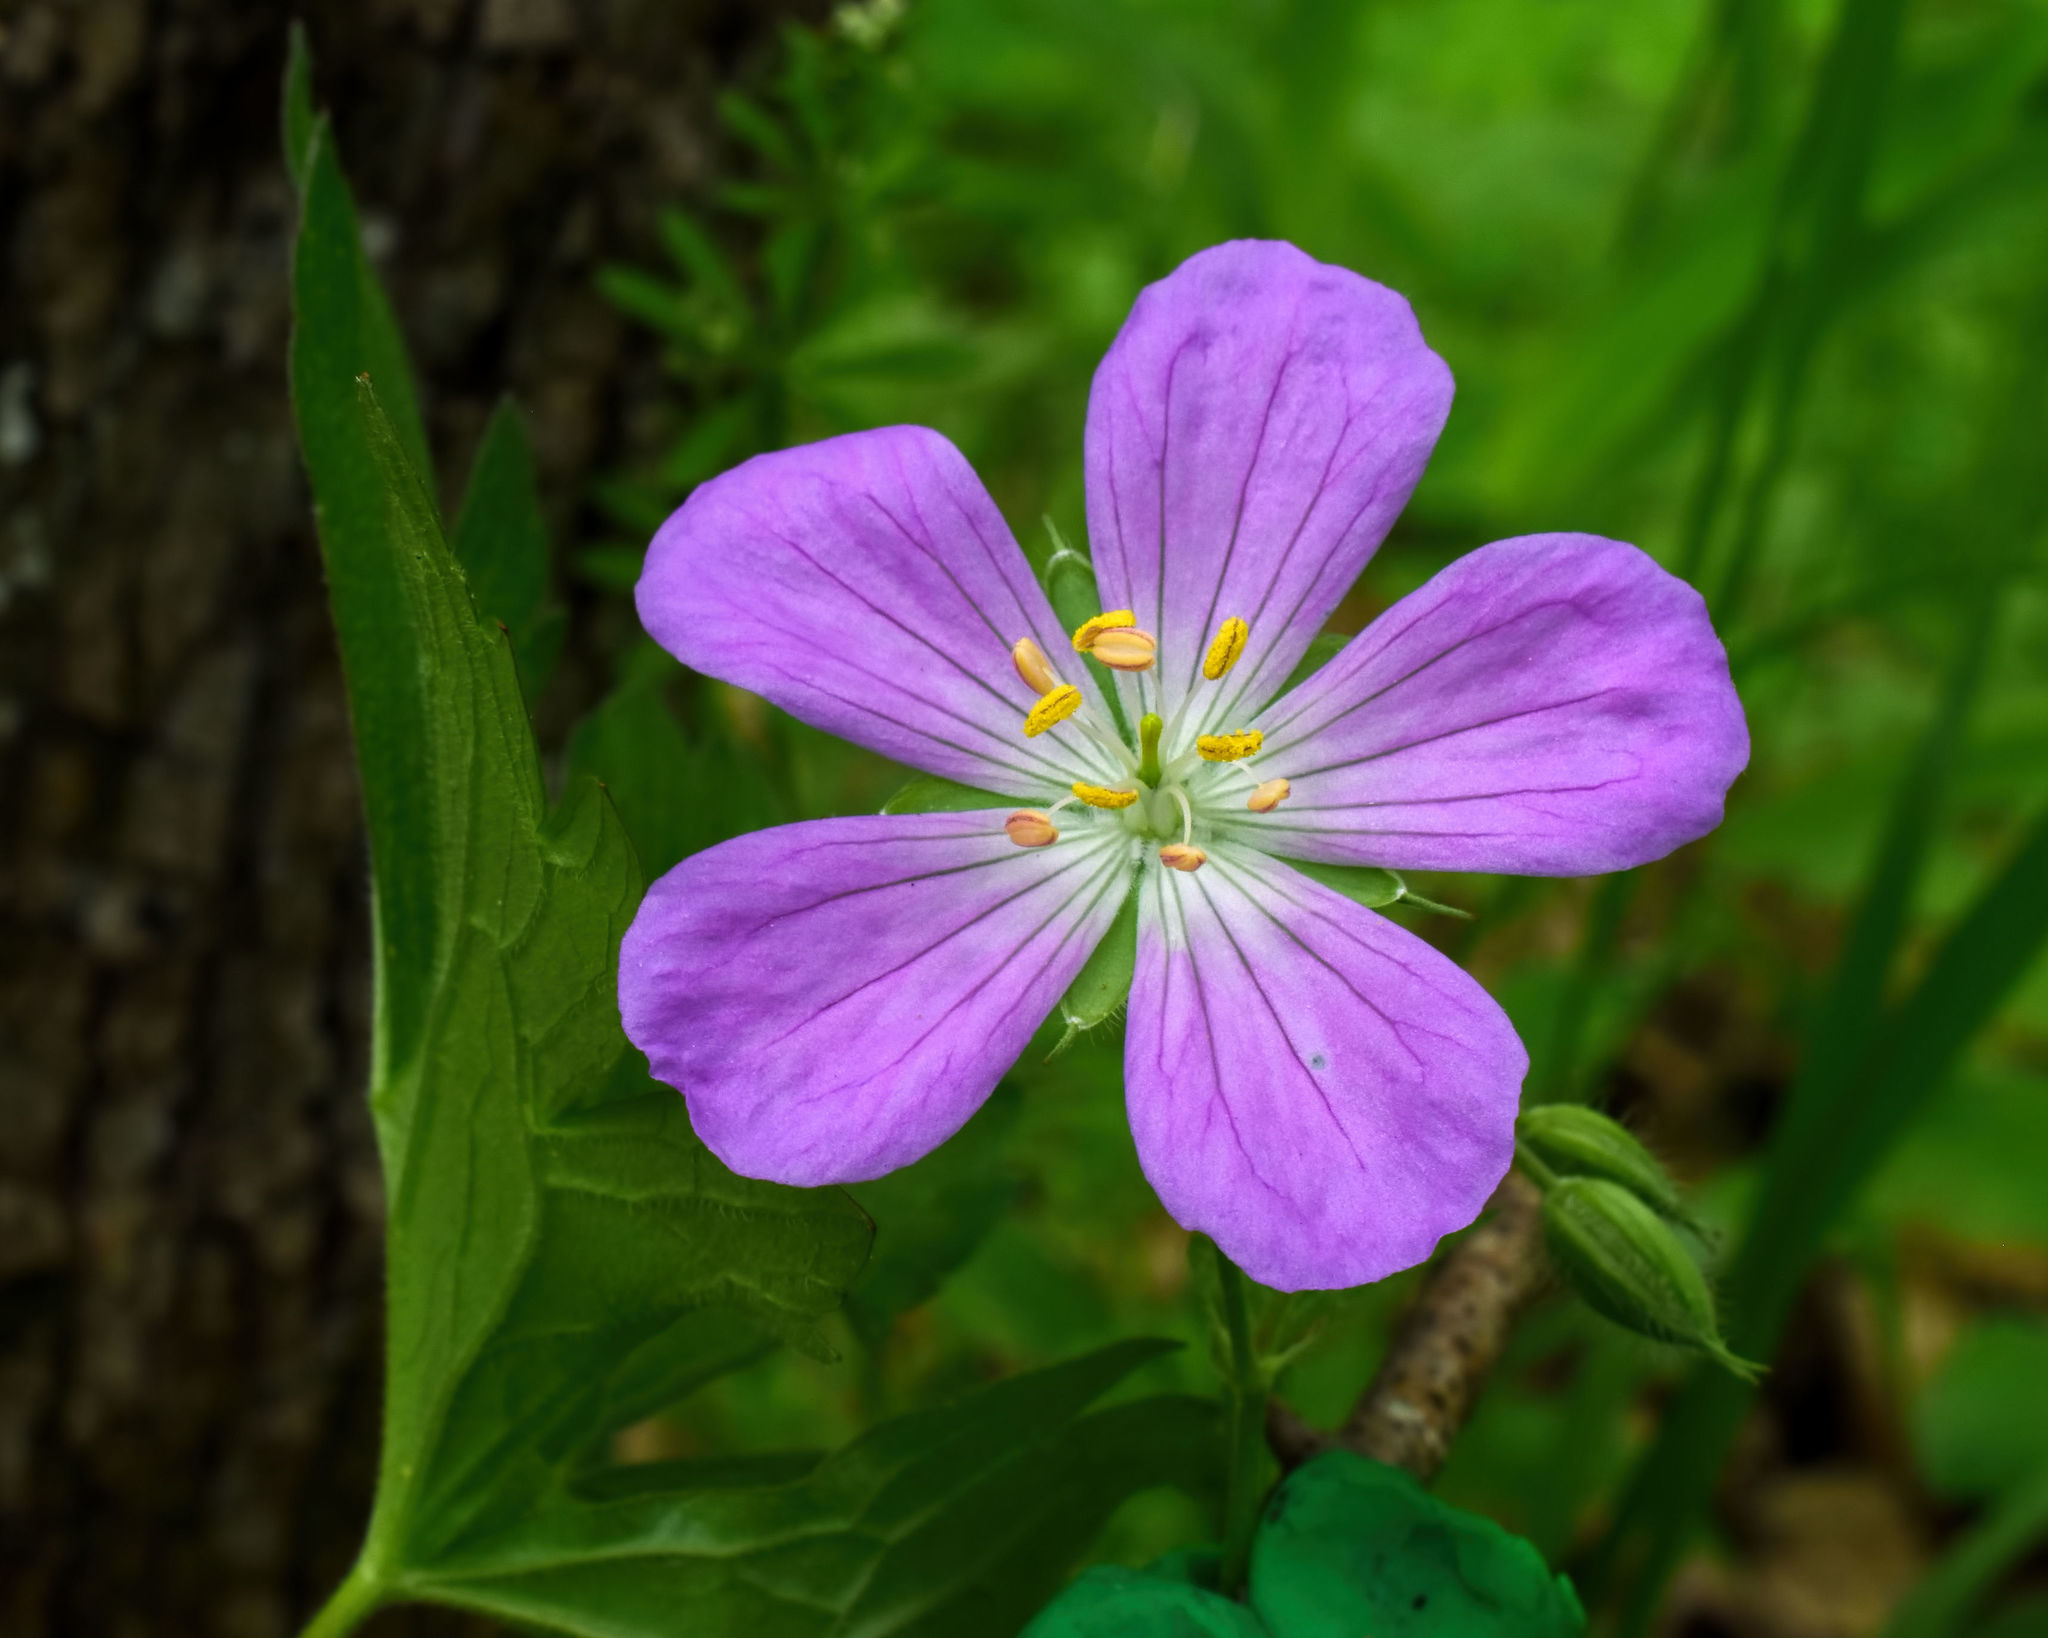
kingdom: Plantae
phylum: Tracheophyta
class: Magnoliopsida
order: Geraniales
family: Geraniaceae
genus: Geranium
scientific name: Geranium maculatum
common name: Spotted geranium
